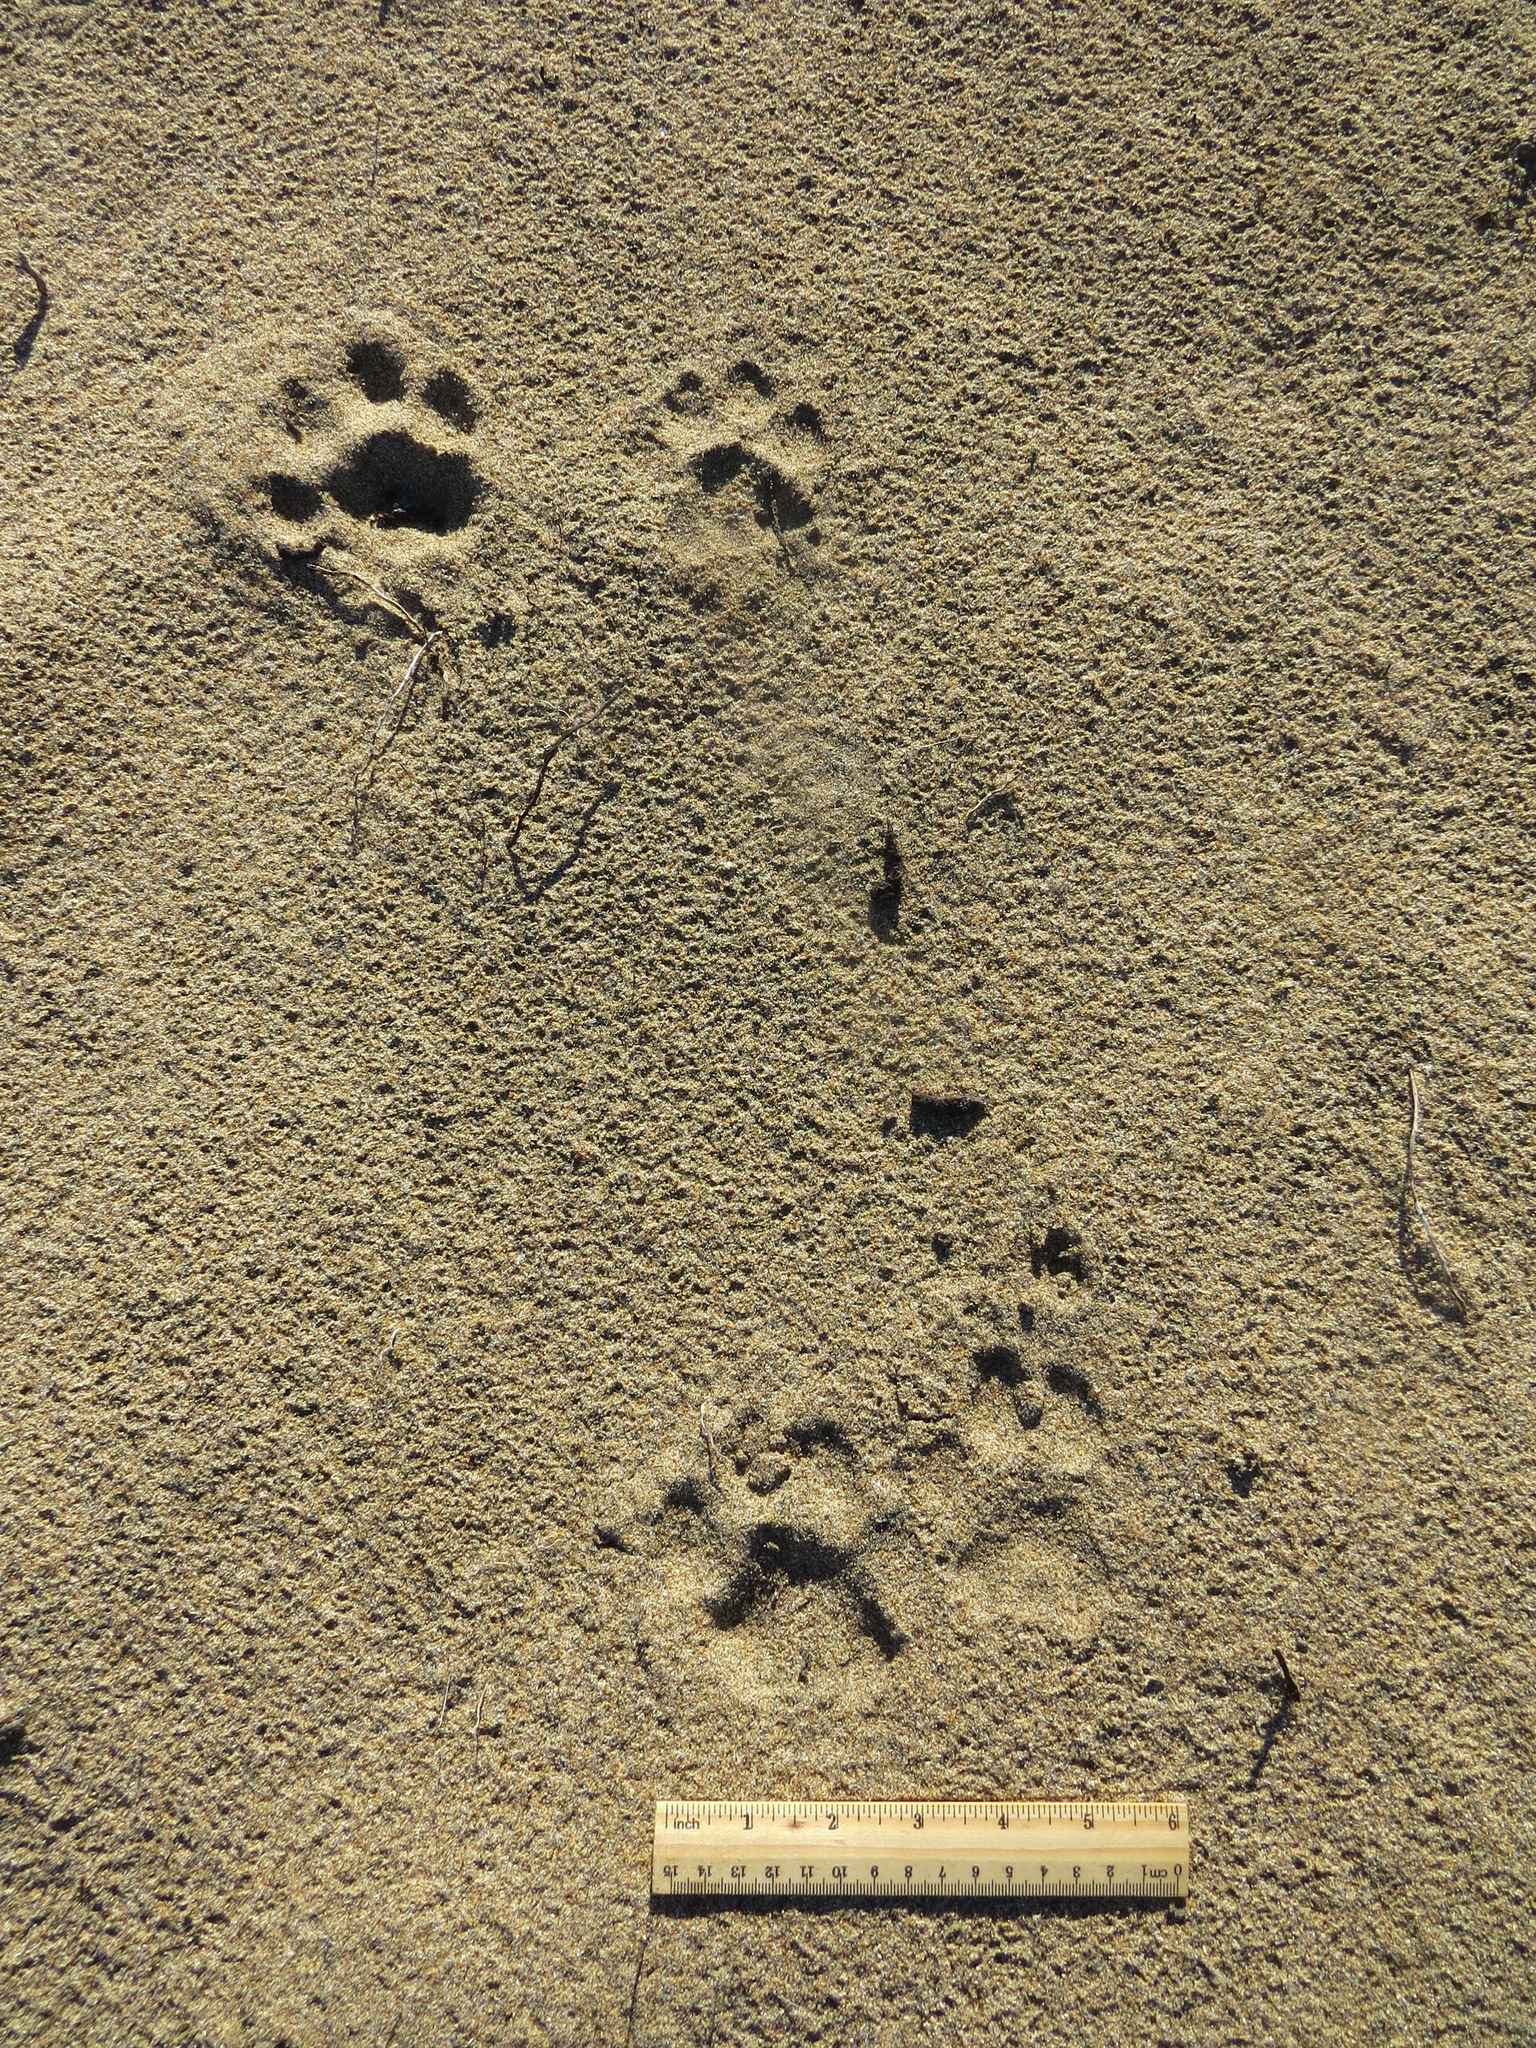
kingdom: Animalia
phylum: Chordata
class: Mammalia
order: Carnivora
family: Felidae
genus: Puma
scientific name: Puma concolor
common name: Puma
